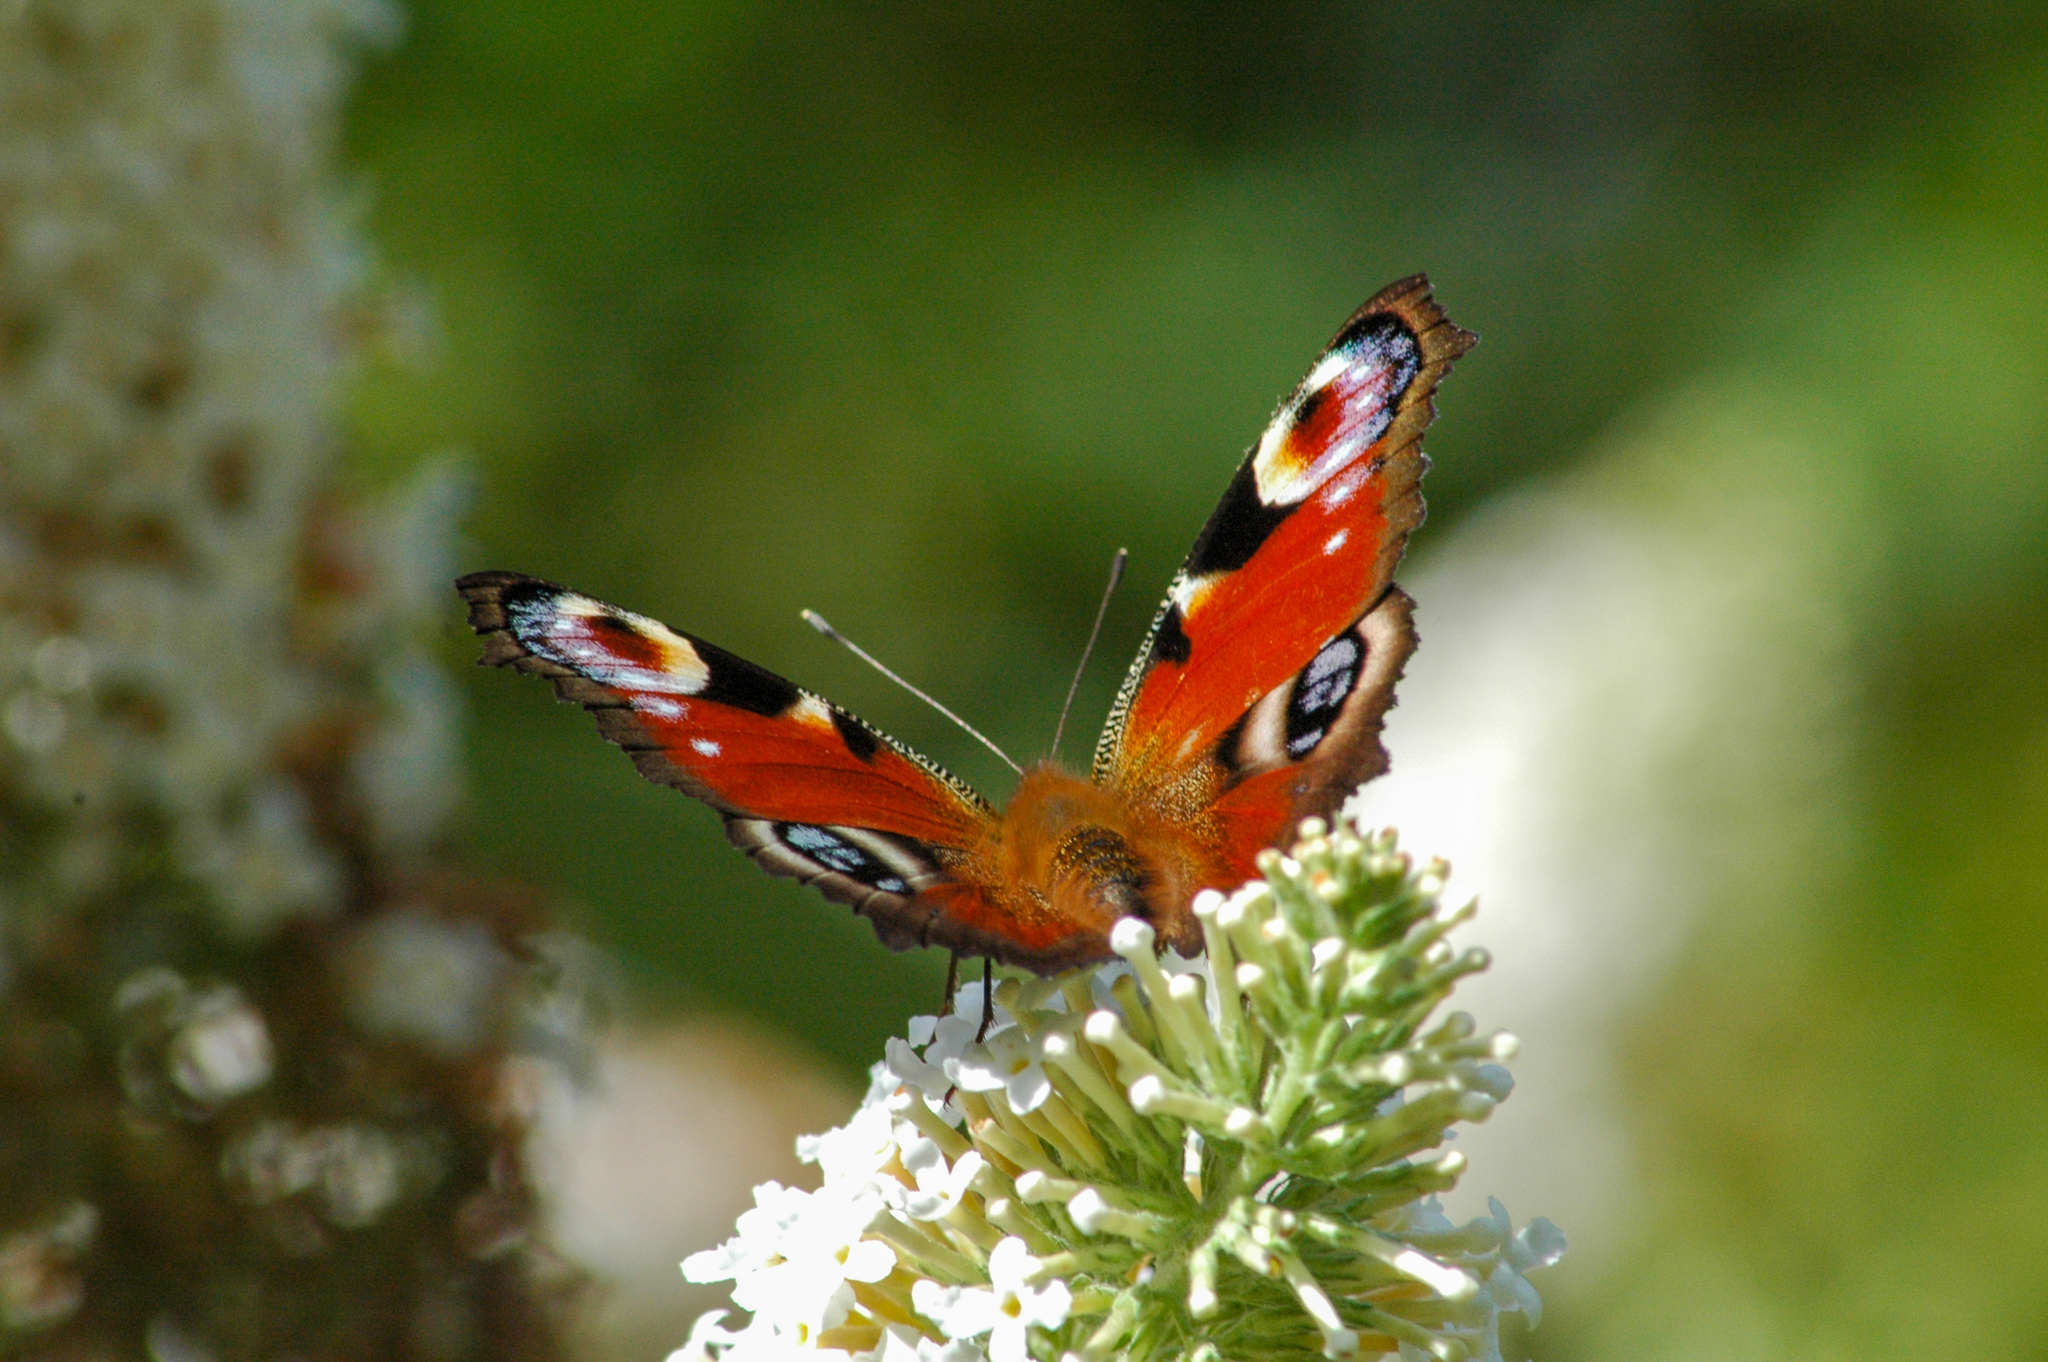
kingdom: Animalia
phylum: Arthropoda
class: Insecta
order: Lepidoptera
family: Nymphalidae
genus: Aglais
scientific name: Aglais io
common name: Peacock
